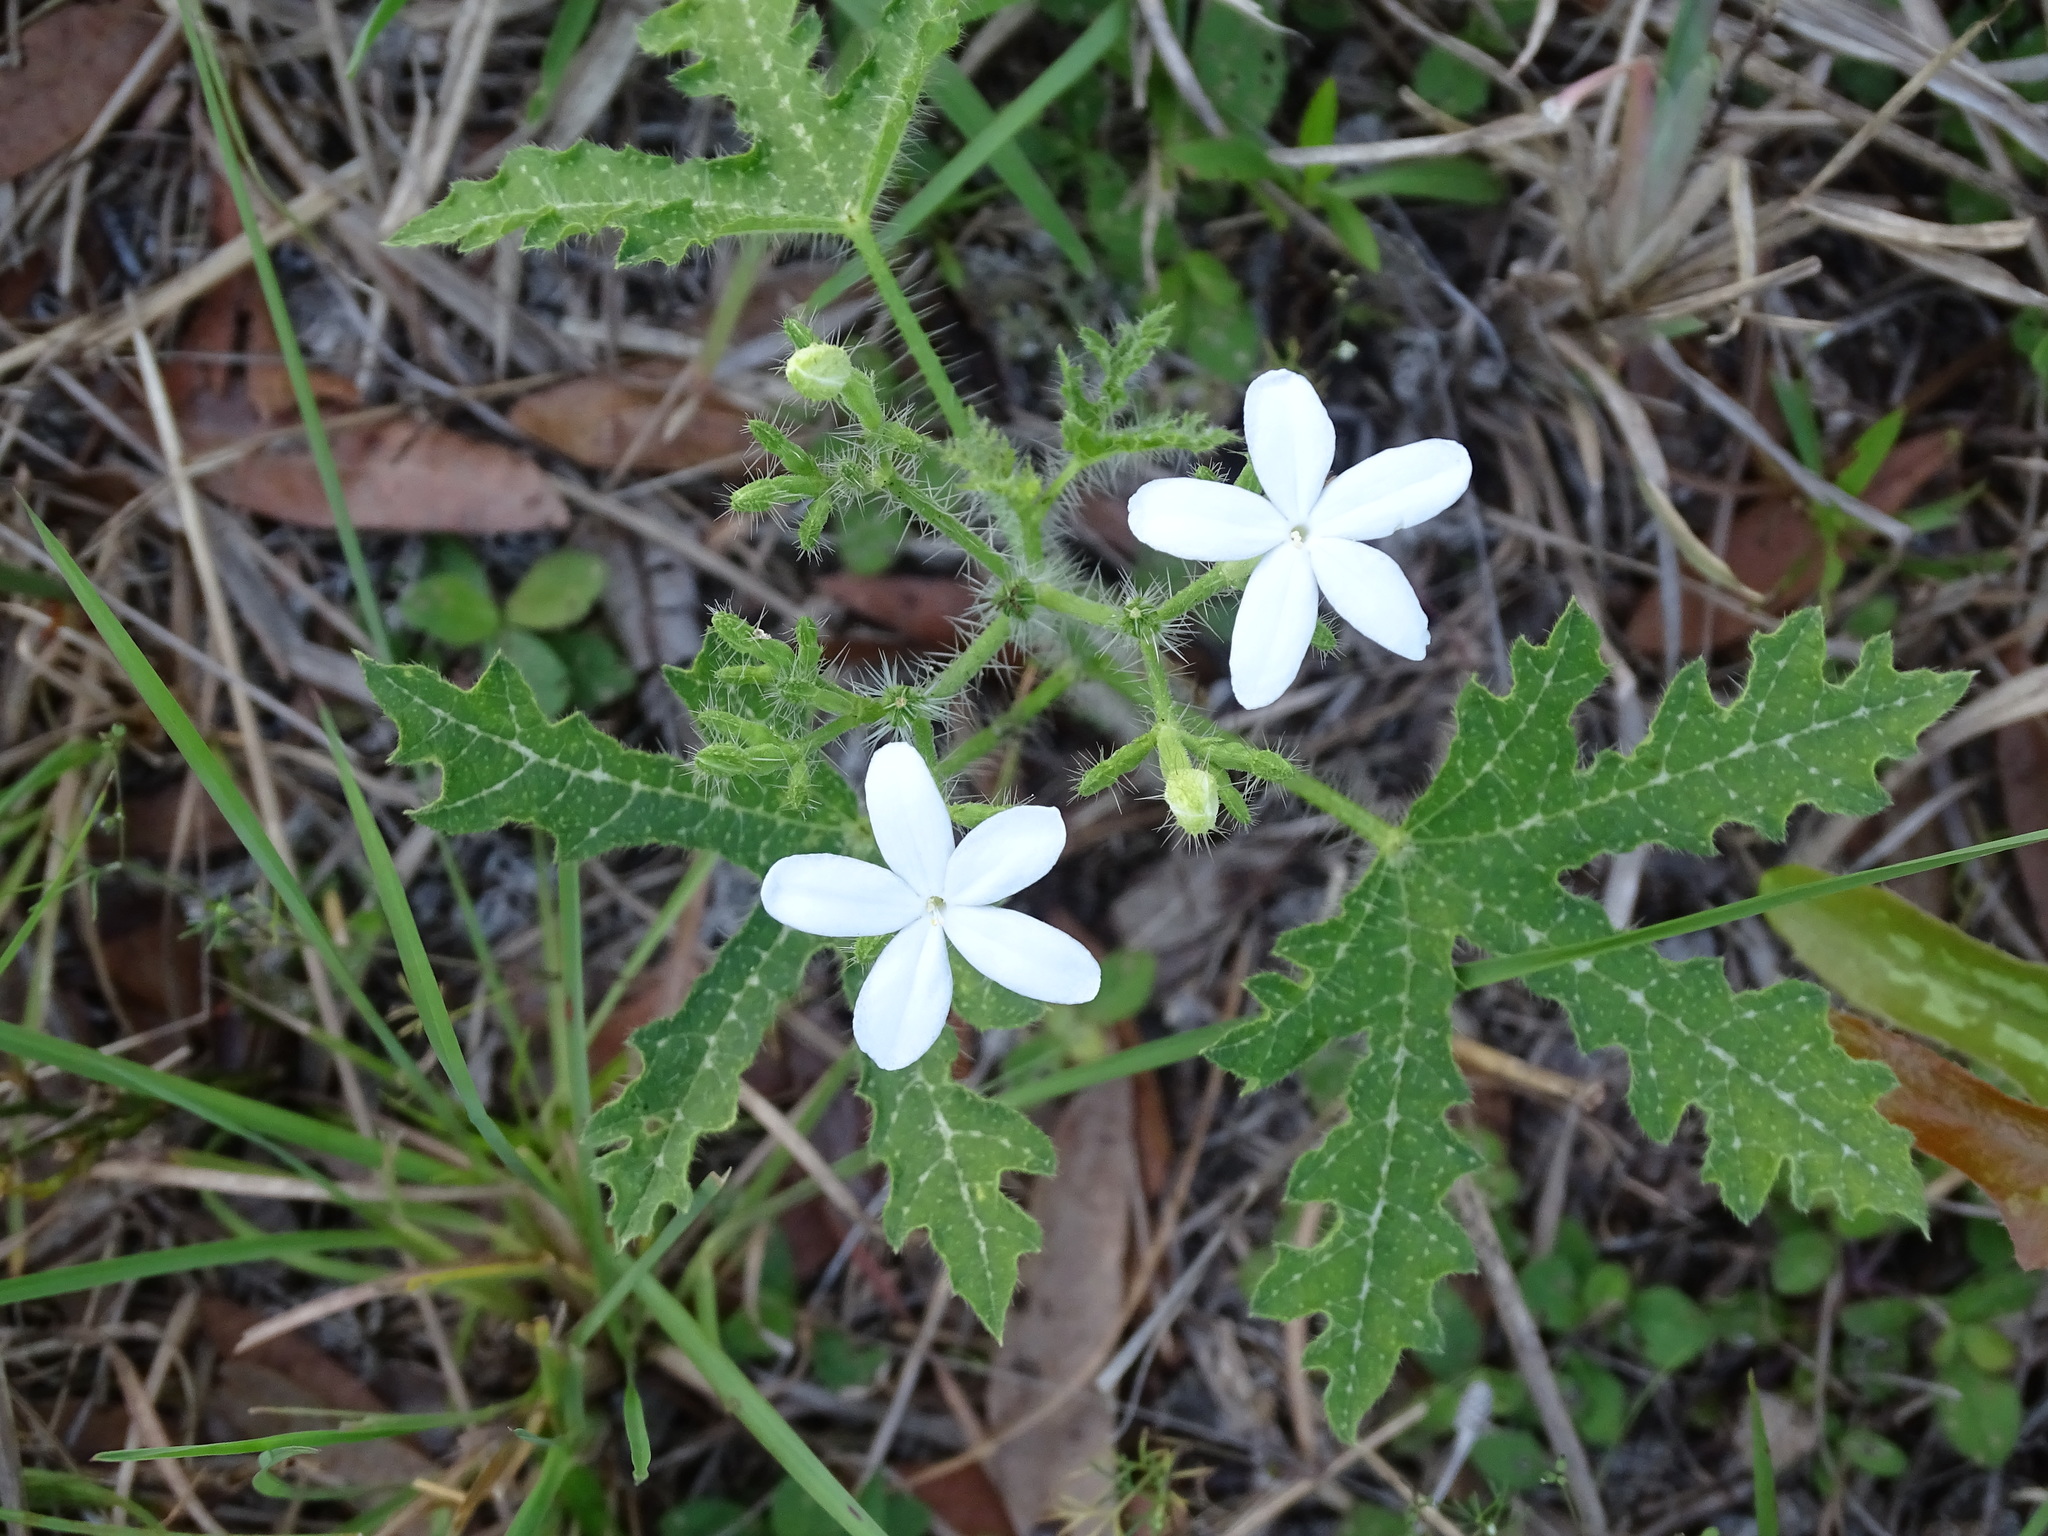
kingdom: Plantae
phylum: Tracheophyta
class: Magnoliopsida
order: Malpighiales
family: Euphorbiaceae
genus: Cnidoscolus
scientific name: Cnidoscolus stimulosus
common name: Bull-nettle
